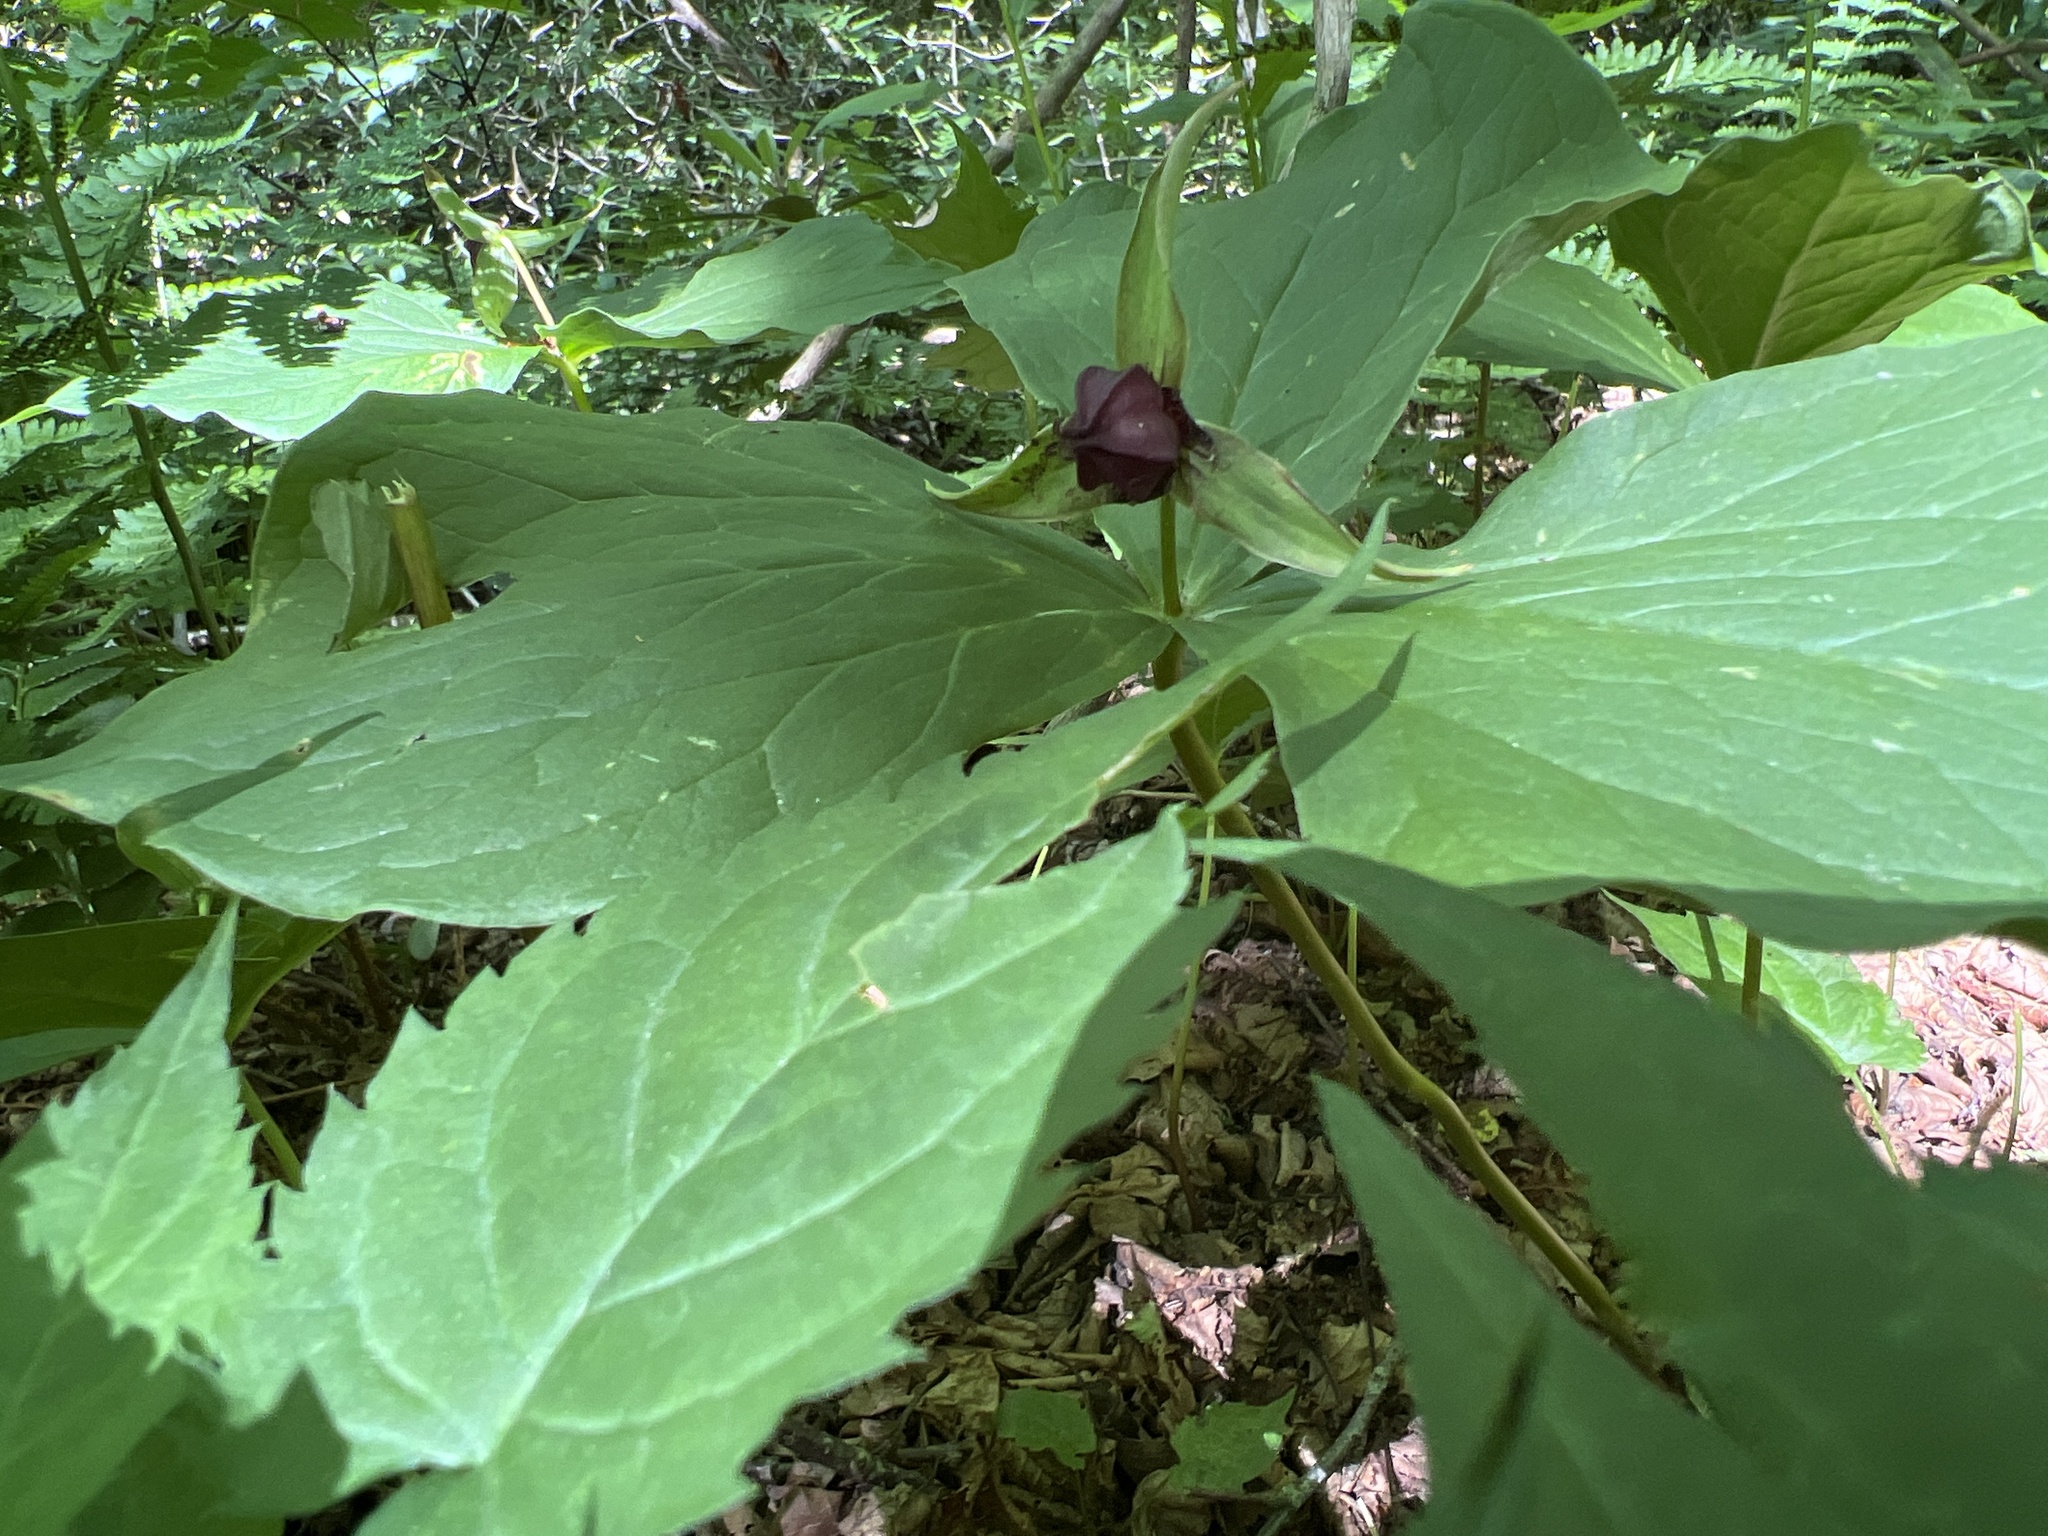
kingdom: Plantae
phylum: Tracheophyta
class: Liliopsida
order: Liliales
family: Melanthiaceae
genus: Trillium
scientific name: Trillium erectum
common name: Purple trillium
